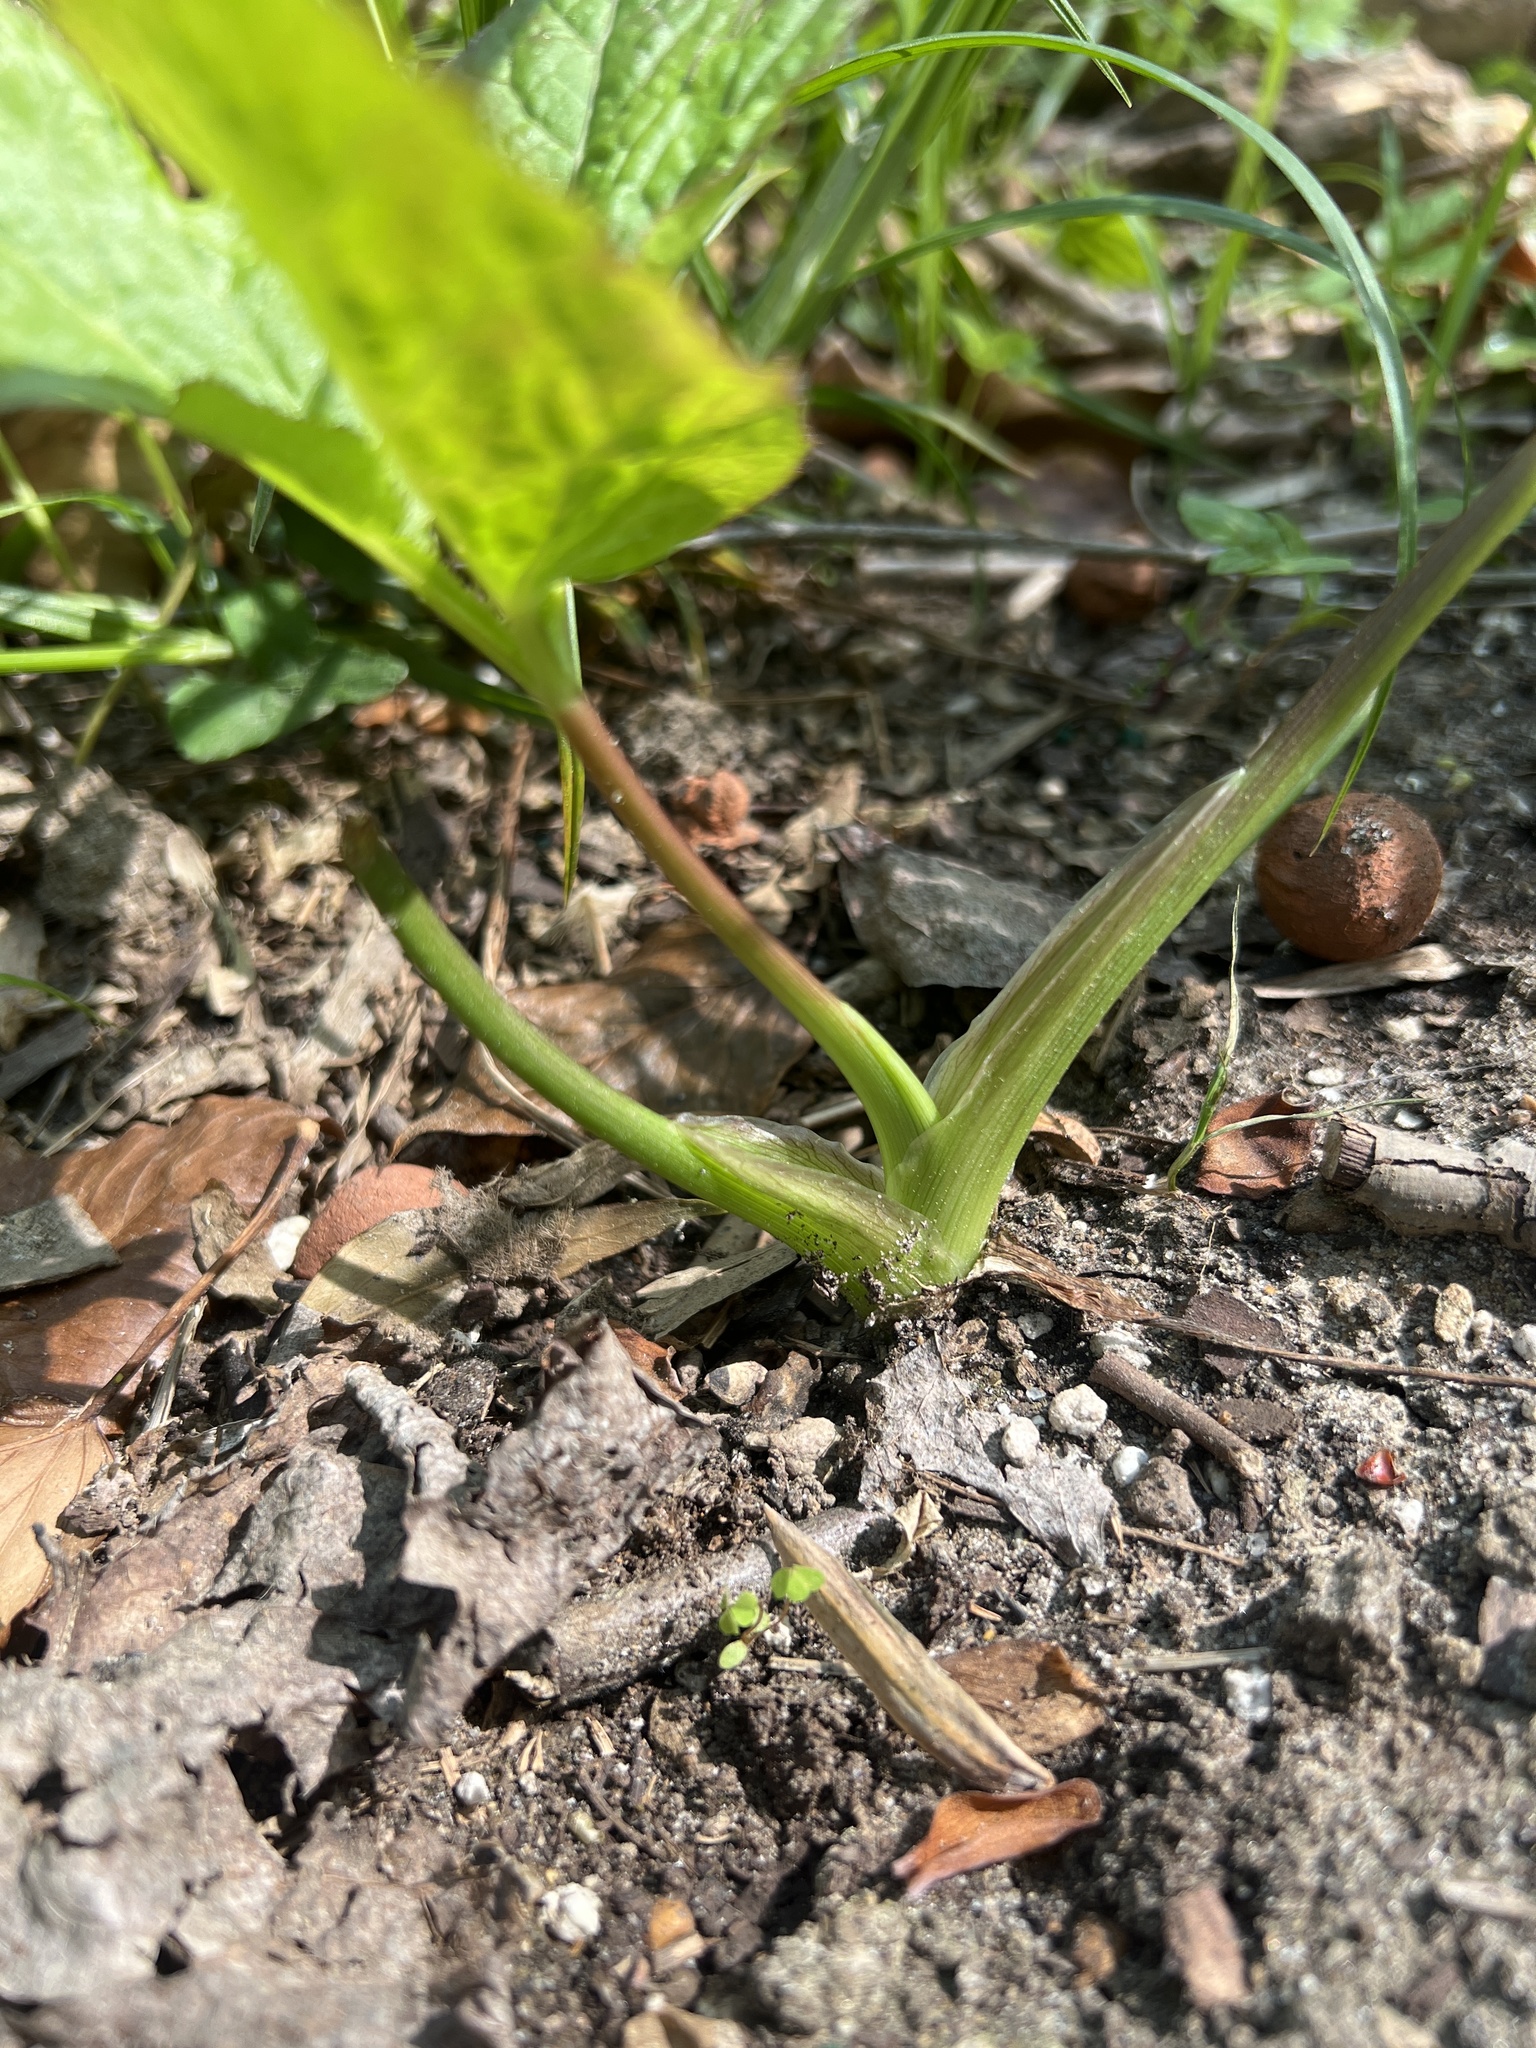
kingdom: Plantae
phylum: Tracheophyta
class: Magnoliopsida
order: Apiales
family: Apiaceae
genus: Cryptotaenia
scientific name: Cryptotaenia canadensis
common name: Honewort
